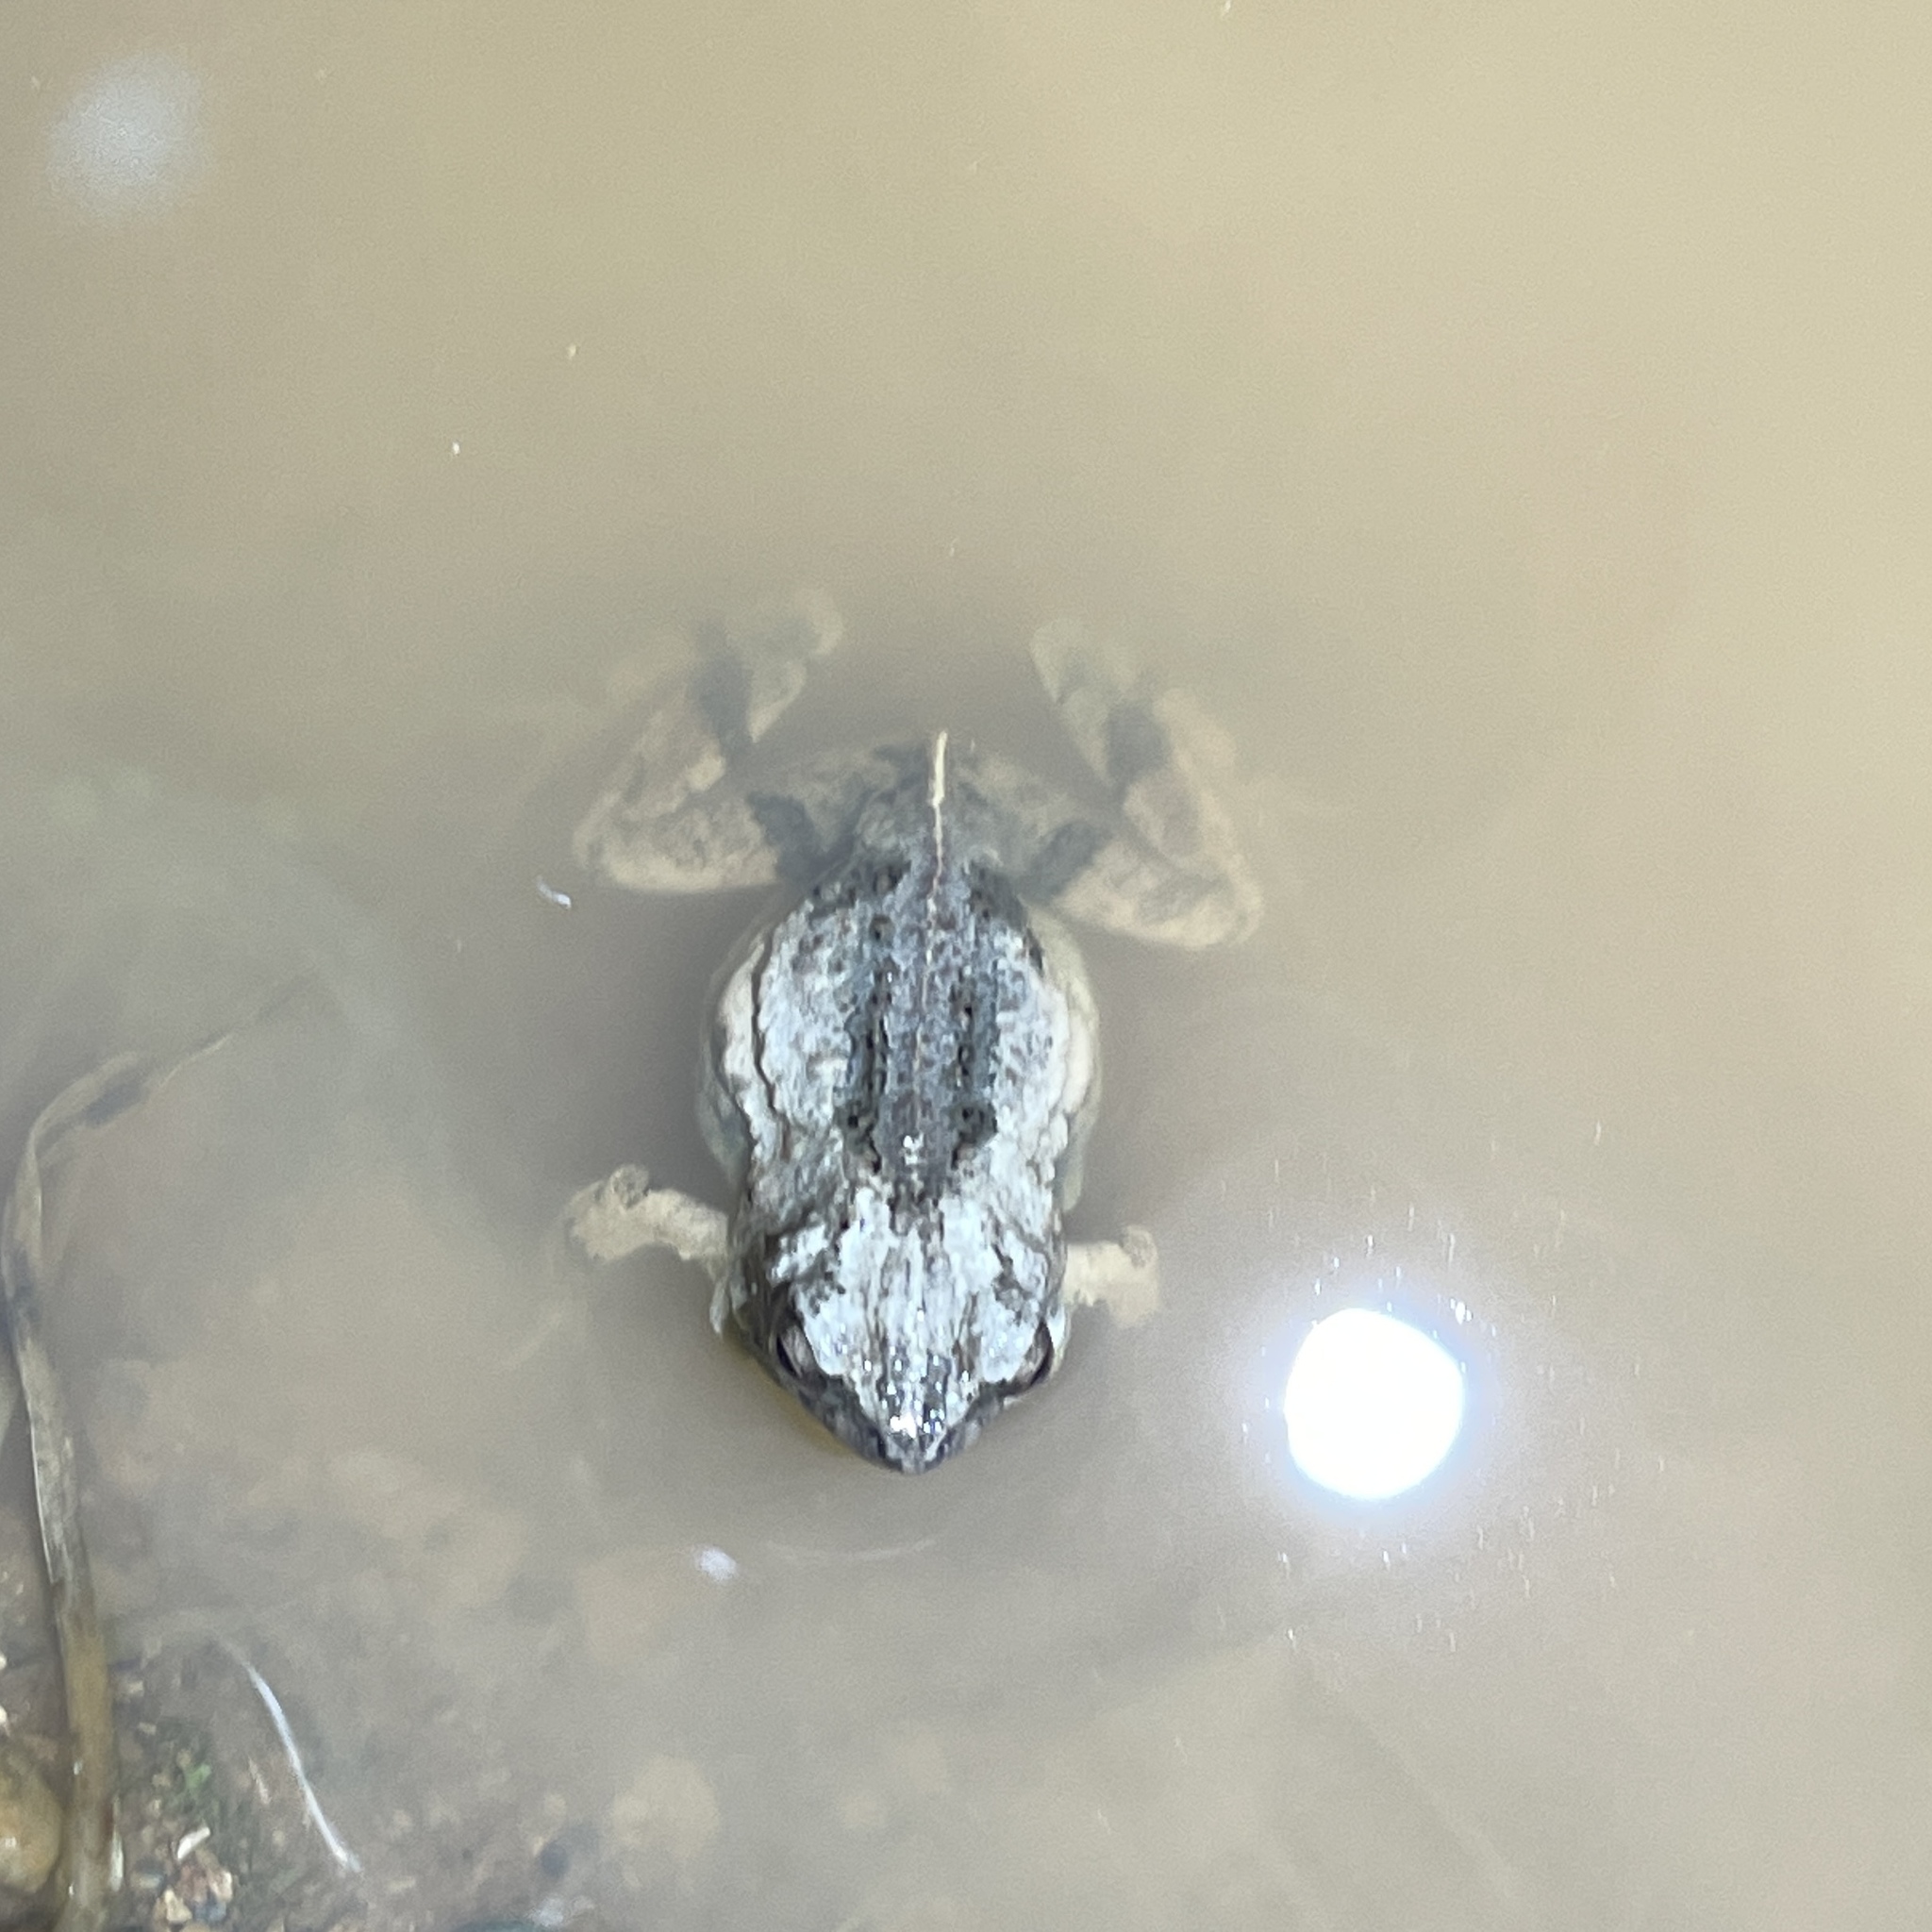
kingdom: Animalia
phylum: Chordata
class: Amphibia
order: Anura
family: Leptodactylidae
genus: Engystomops
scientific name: Engystomops pustulosus
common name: Tungara frog
